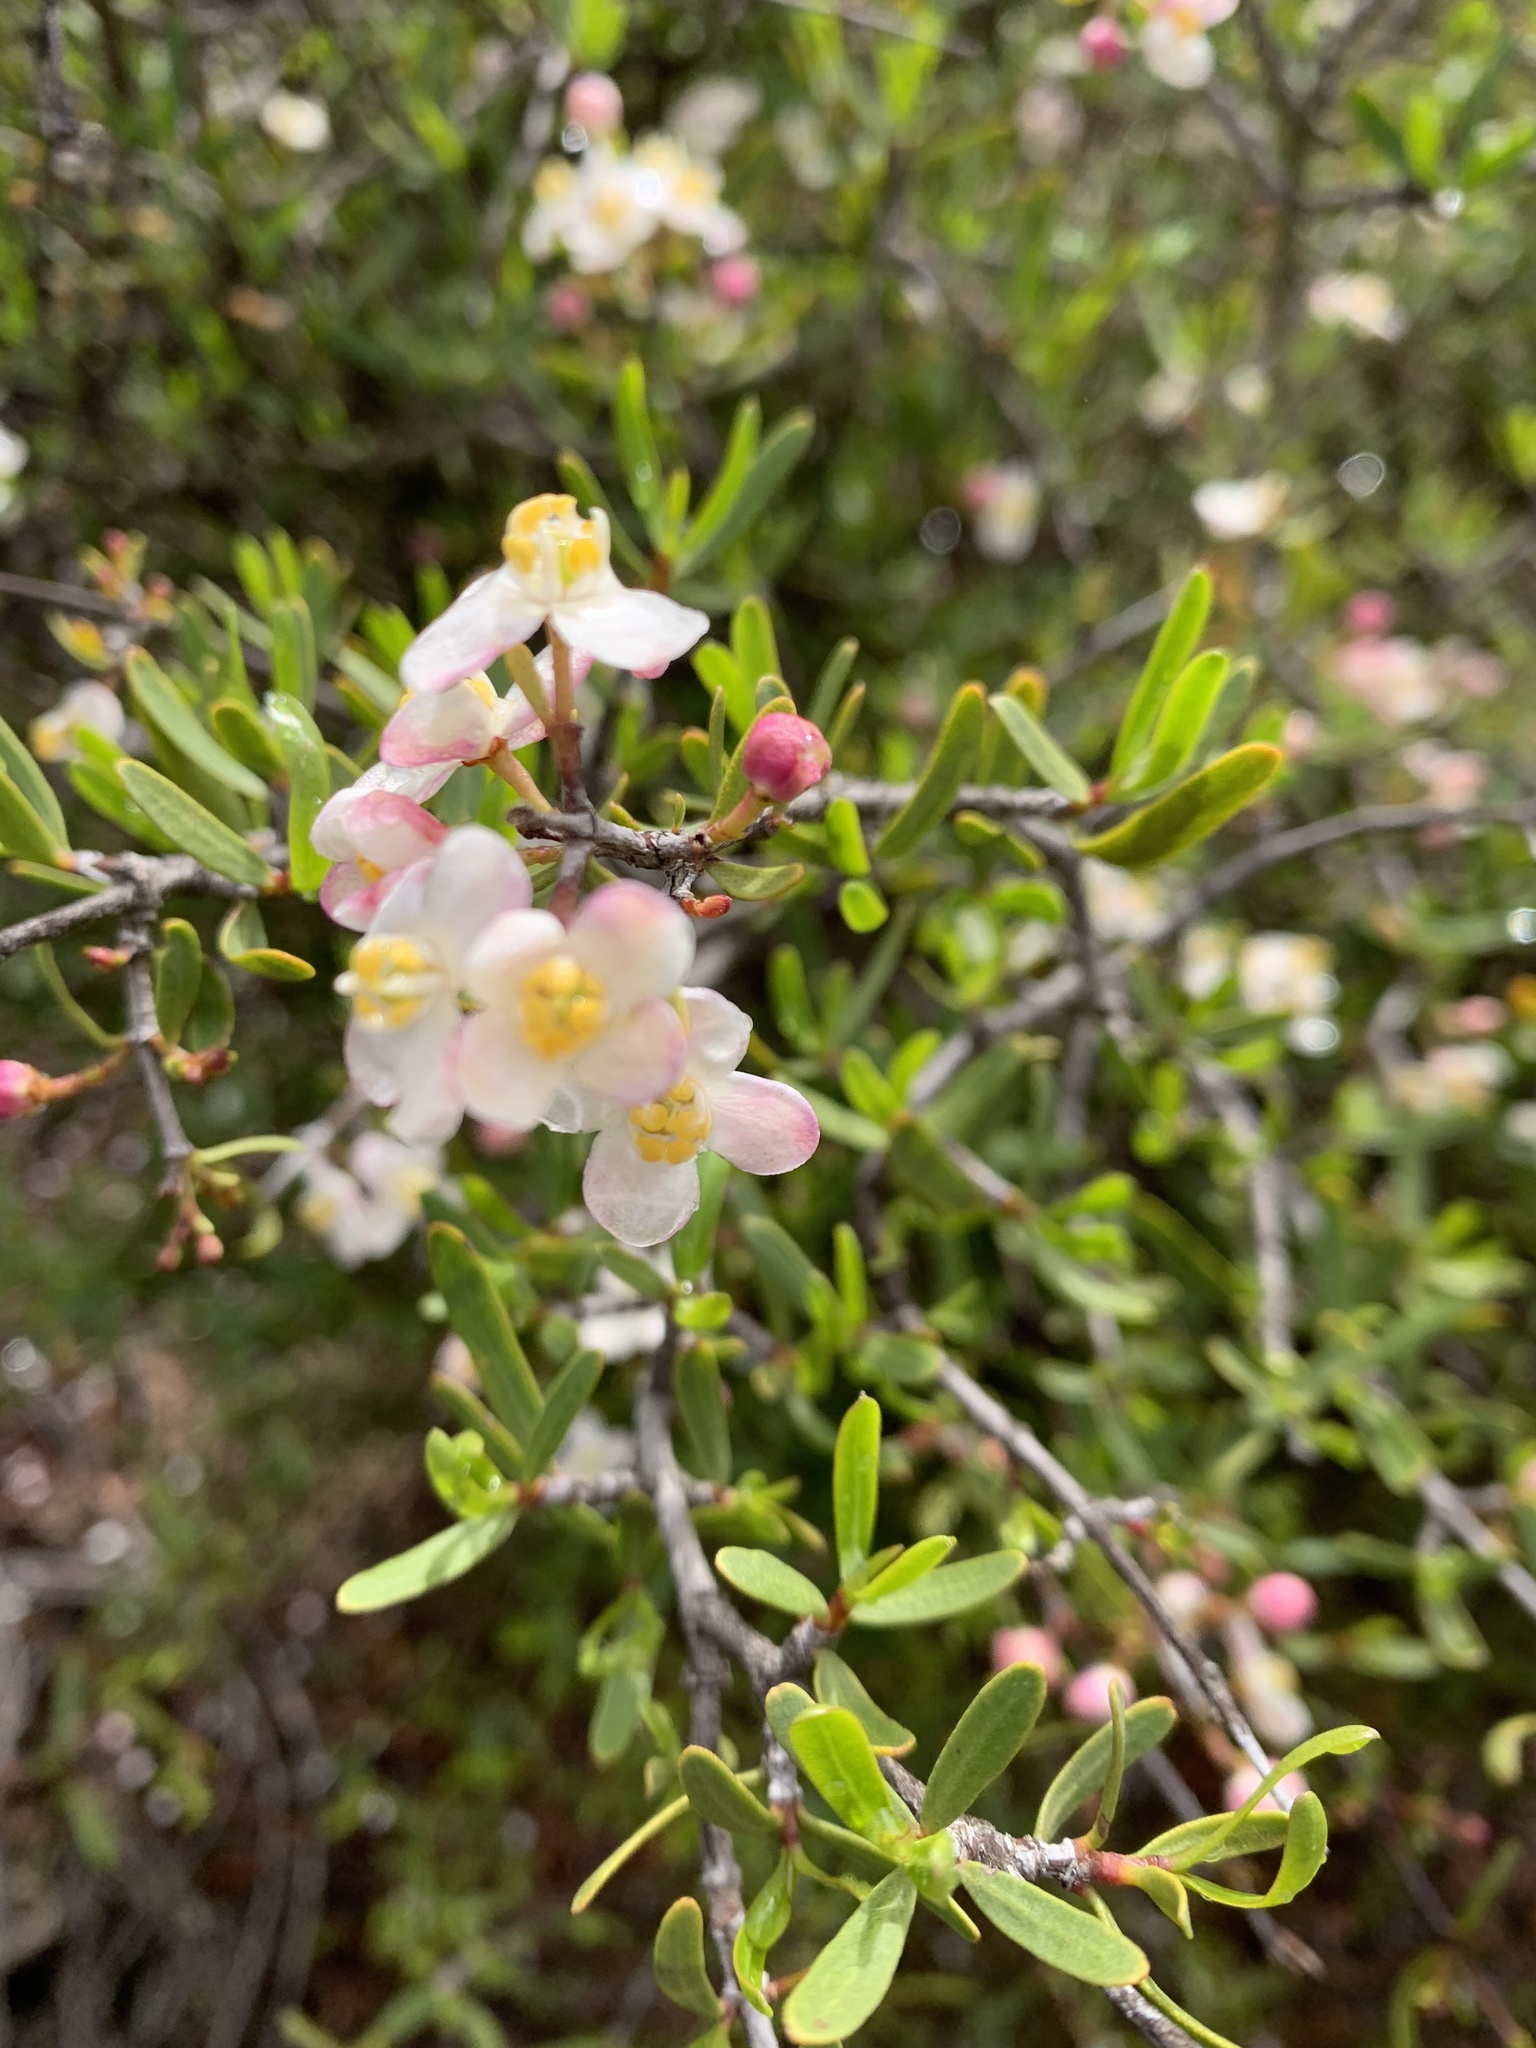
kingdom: Plantae
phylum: Tracheophyta
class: Magnoliopsida
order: Sapindales
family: Rutaceae
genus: Cneoridium
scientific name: Cneoridium dumosum
